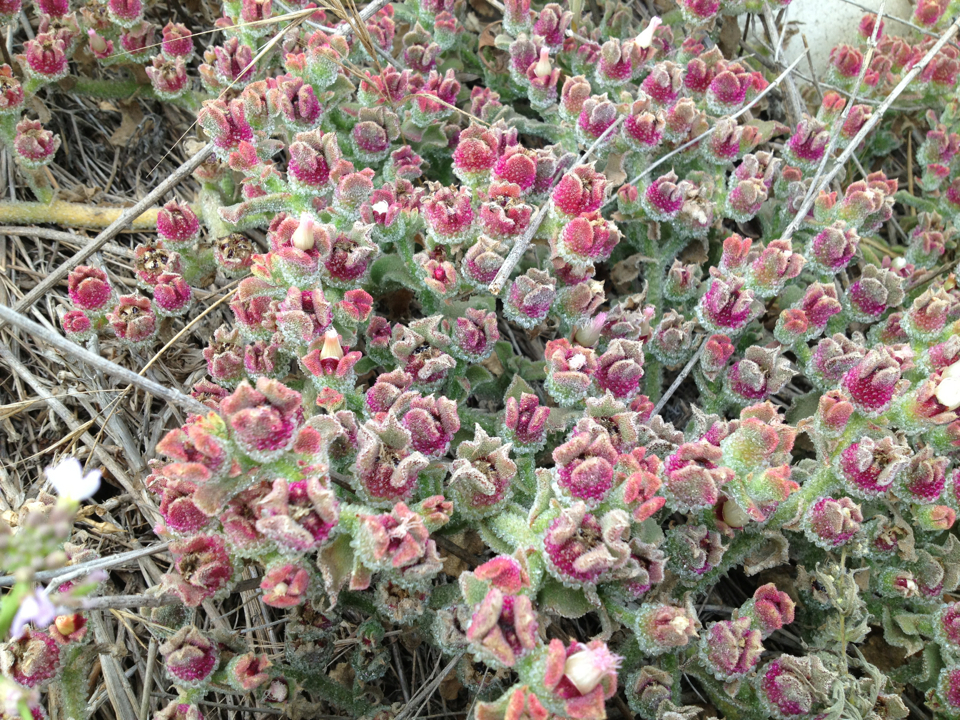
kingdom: Plantae
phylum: Tracheophyta
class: Magnoliopsida
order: Caryophyllales
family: Aizoaceae
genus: Mesembryanthemum
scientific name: Mesembryanthemum crystallinum
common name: Common iceplant
